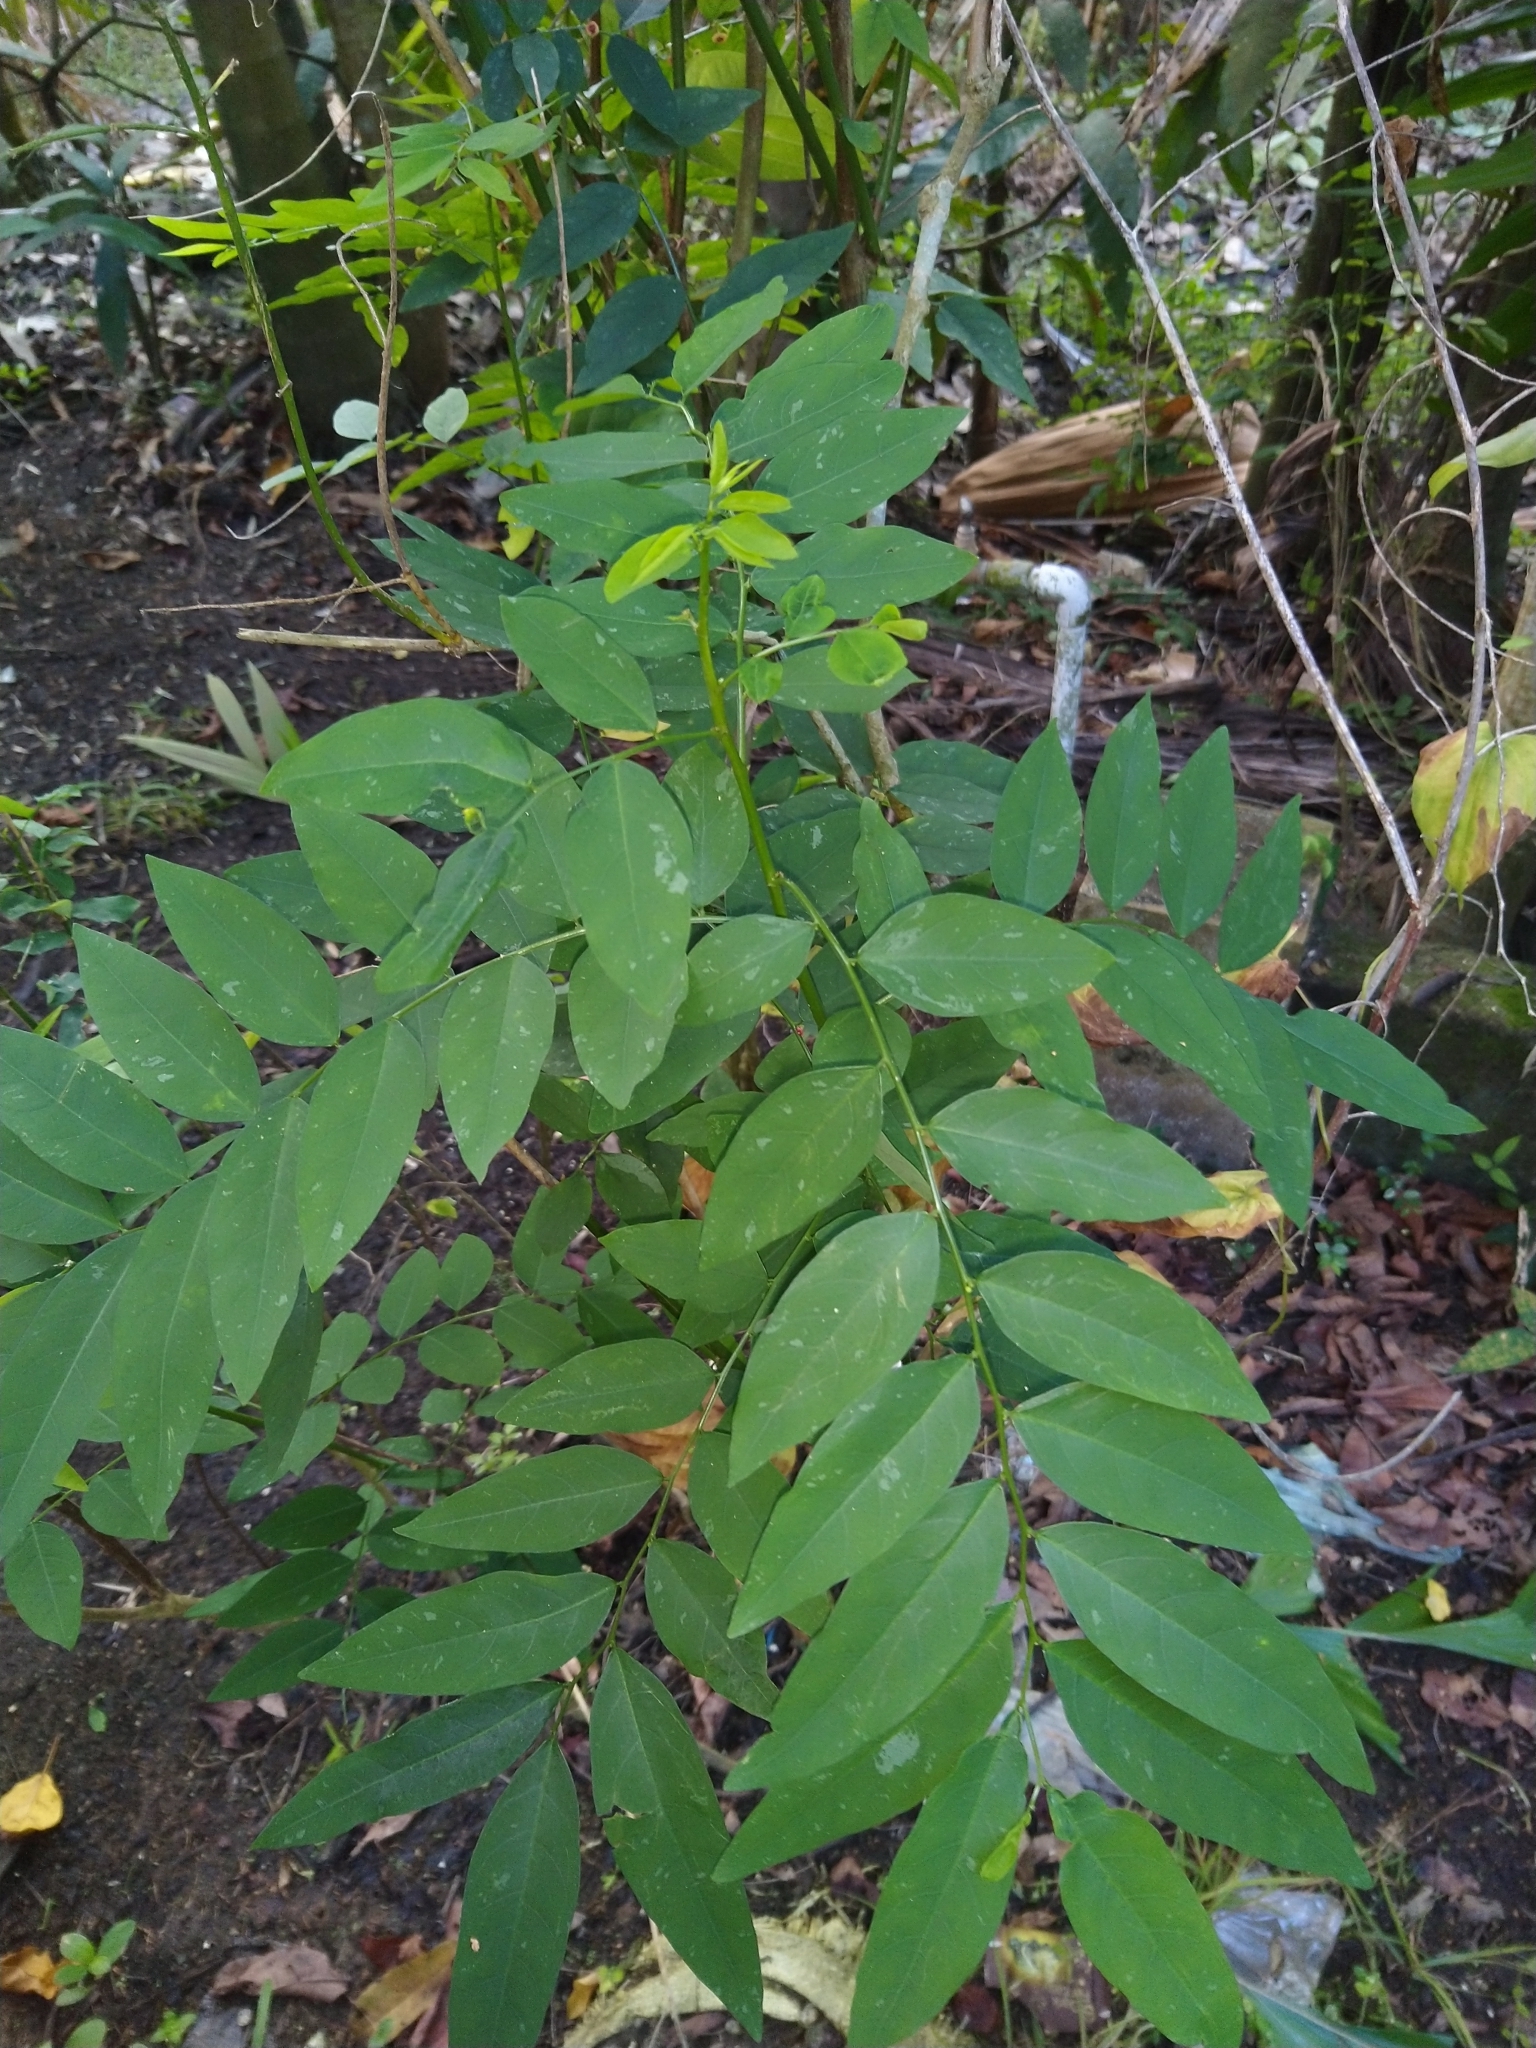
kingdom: Plantae
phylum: Tracheophyta
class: Magnoliopsida
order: Malpighiales
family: Phyllanthaceae
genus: Breynia
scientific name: Breynia androgyna
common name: Star gooseberry
